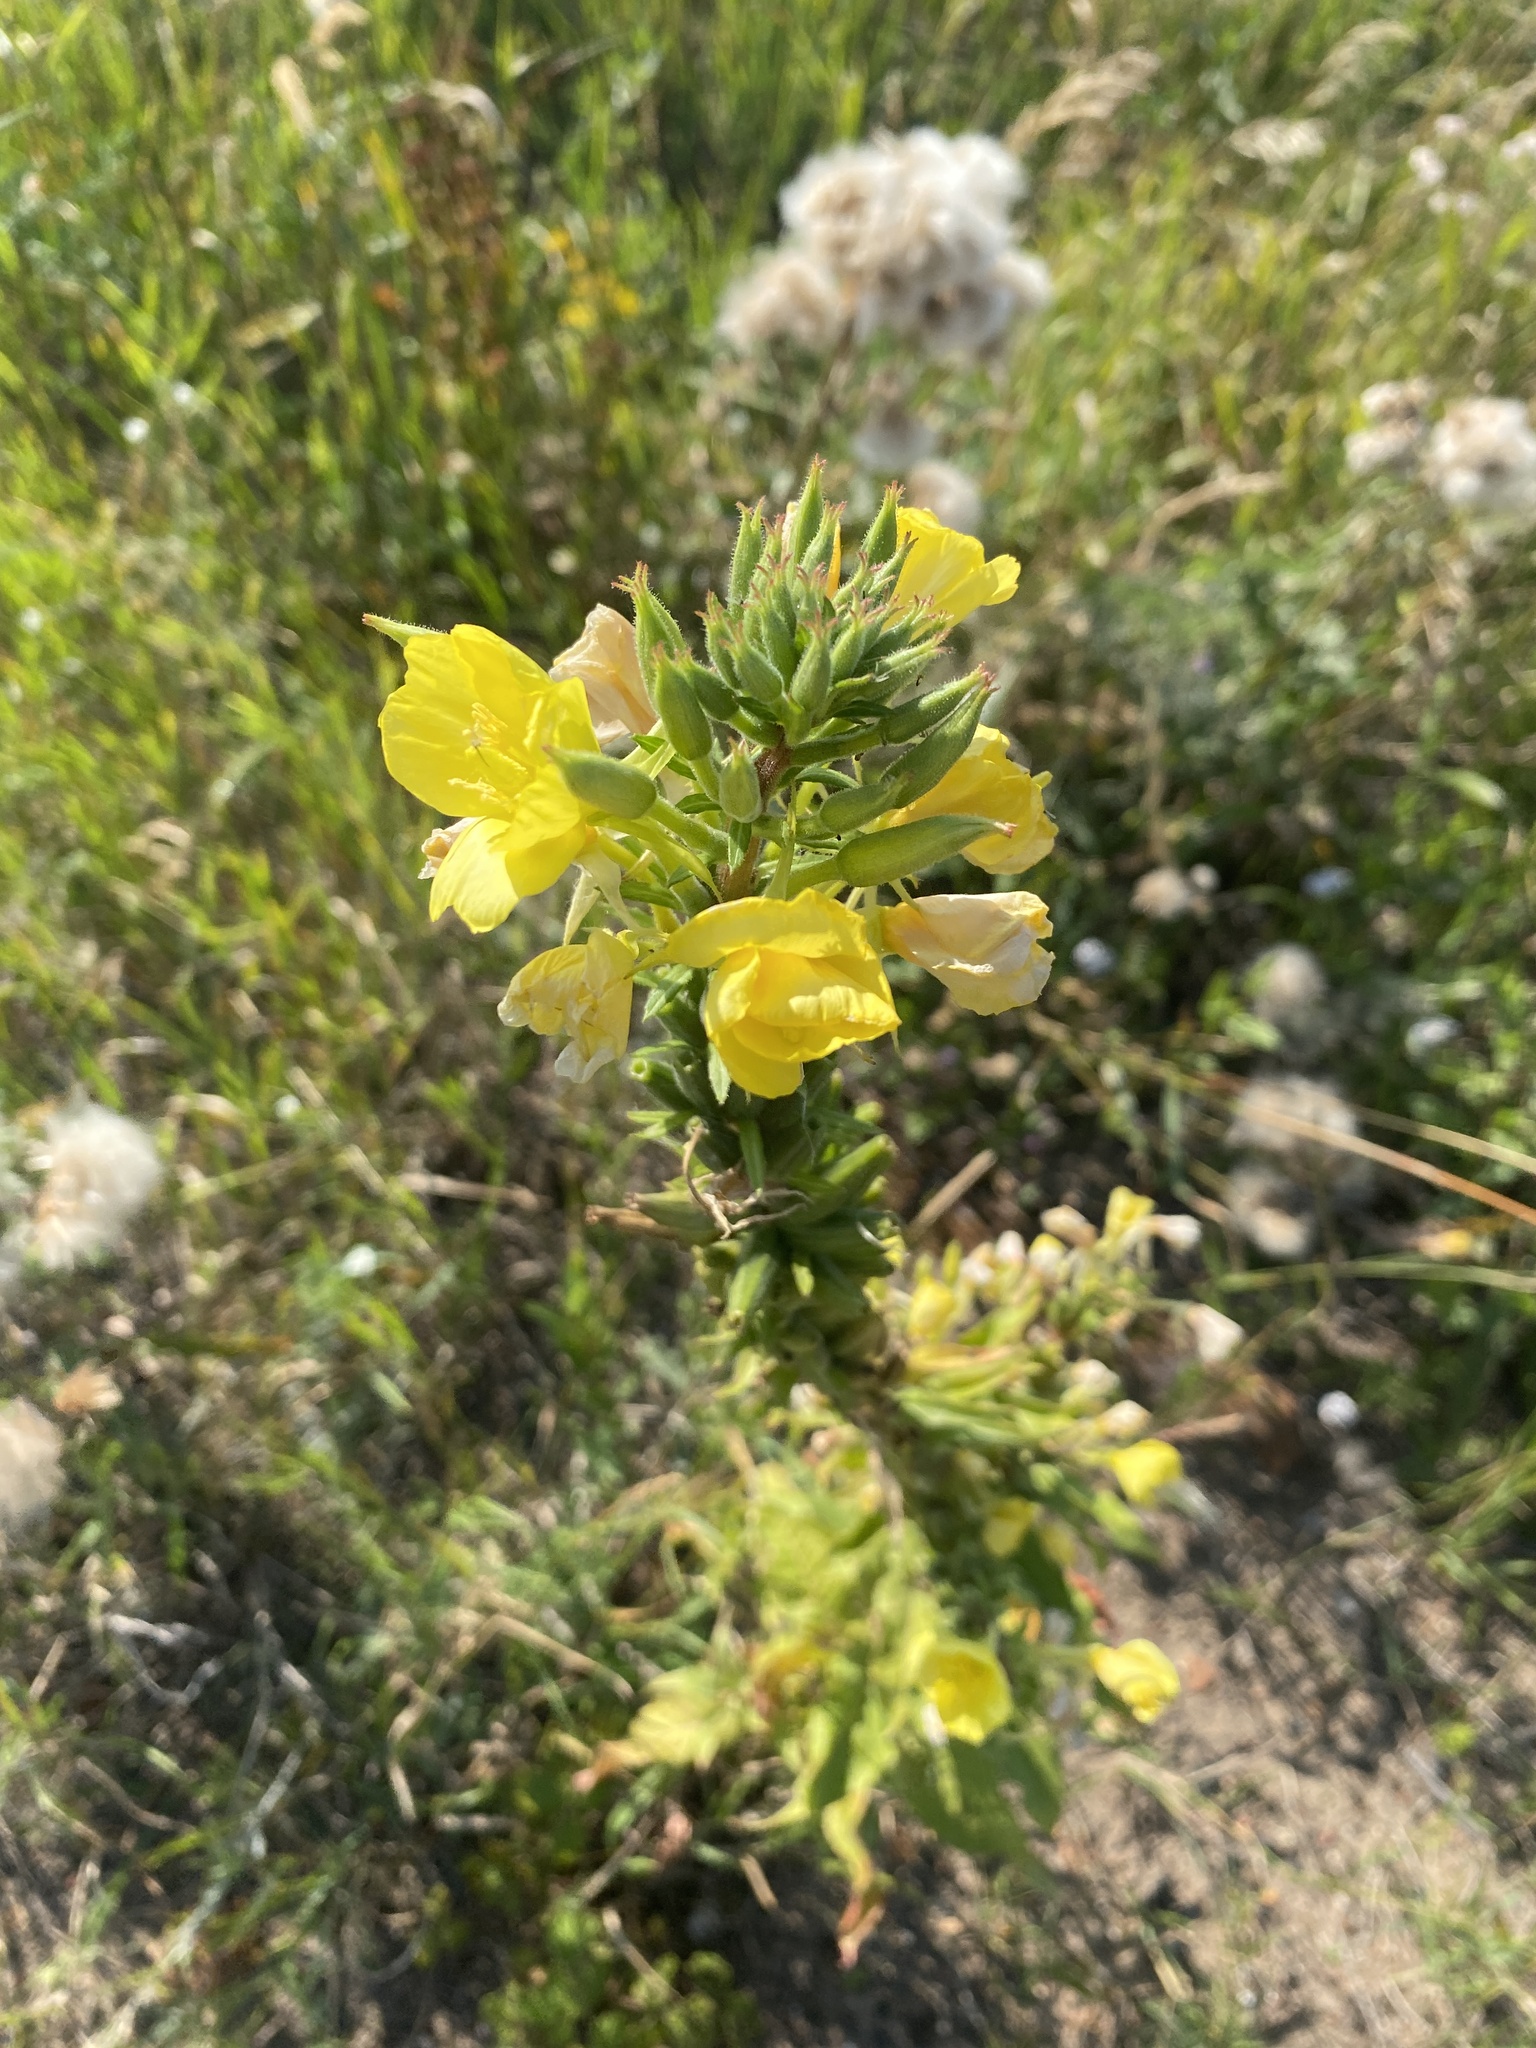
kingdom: Plantae
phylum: Tracheophyta
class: Magnoliopsida
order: Myrtales
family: Onagraceae
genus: Oenothera
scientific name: Oenothera rubricaulis
